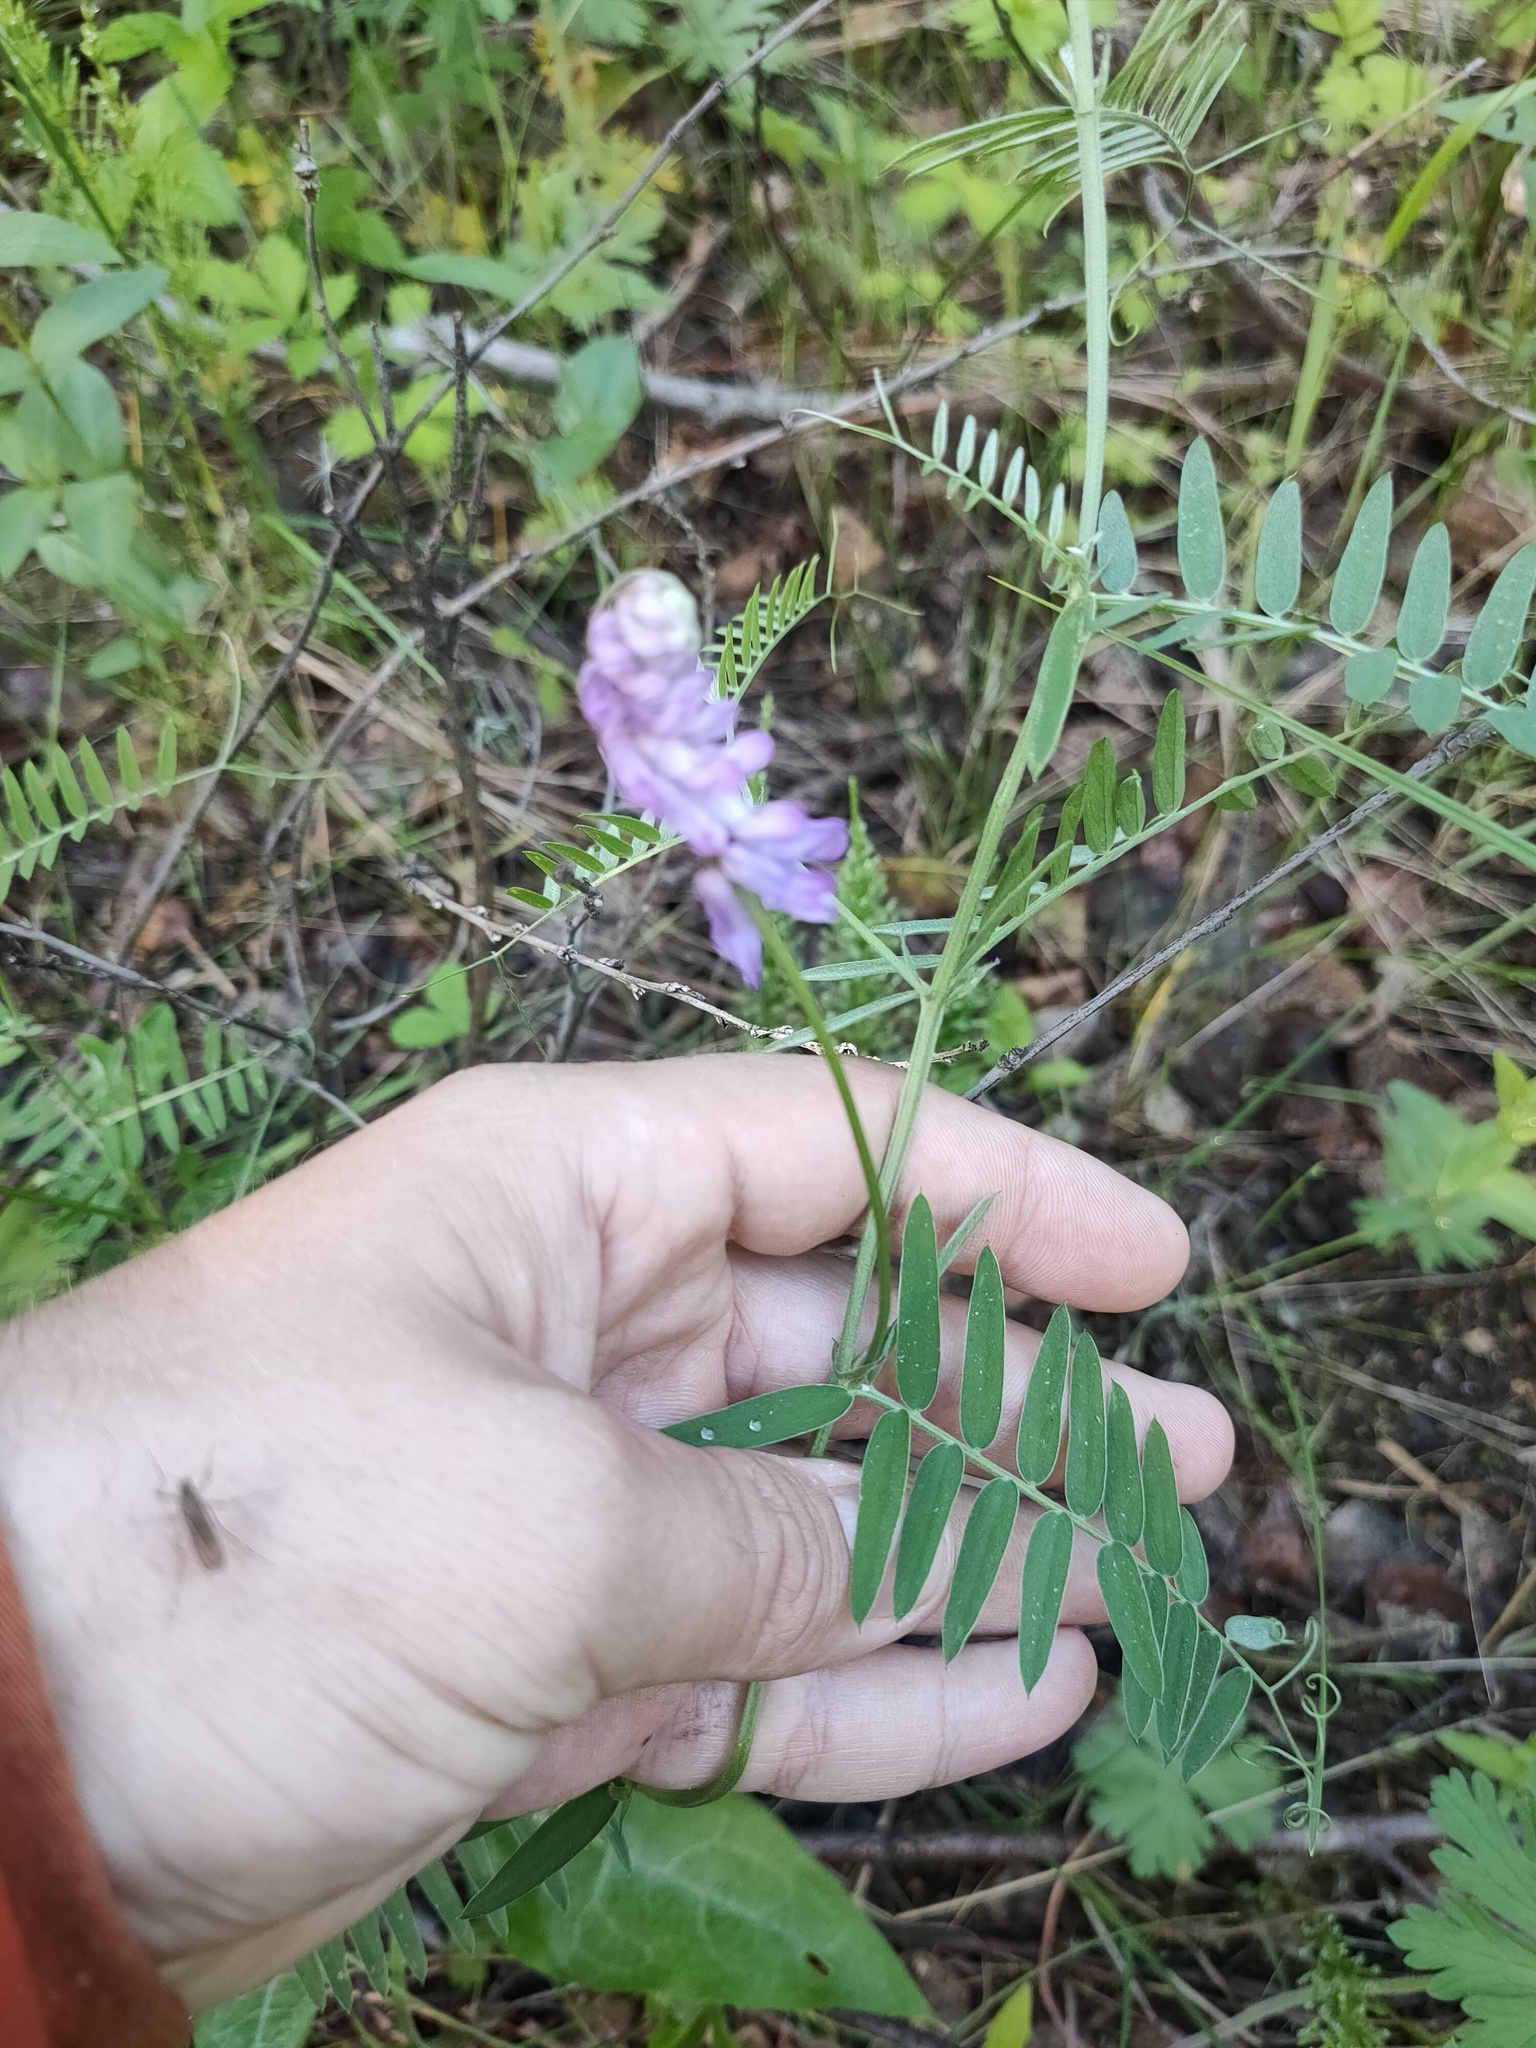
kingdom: Plantae
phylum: Tracheophyta
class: Magnoliopsida
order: Fabales
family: Fabaceae
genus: Vicia
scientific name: Vicia cracca
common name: Bird vetch
